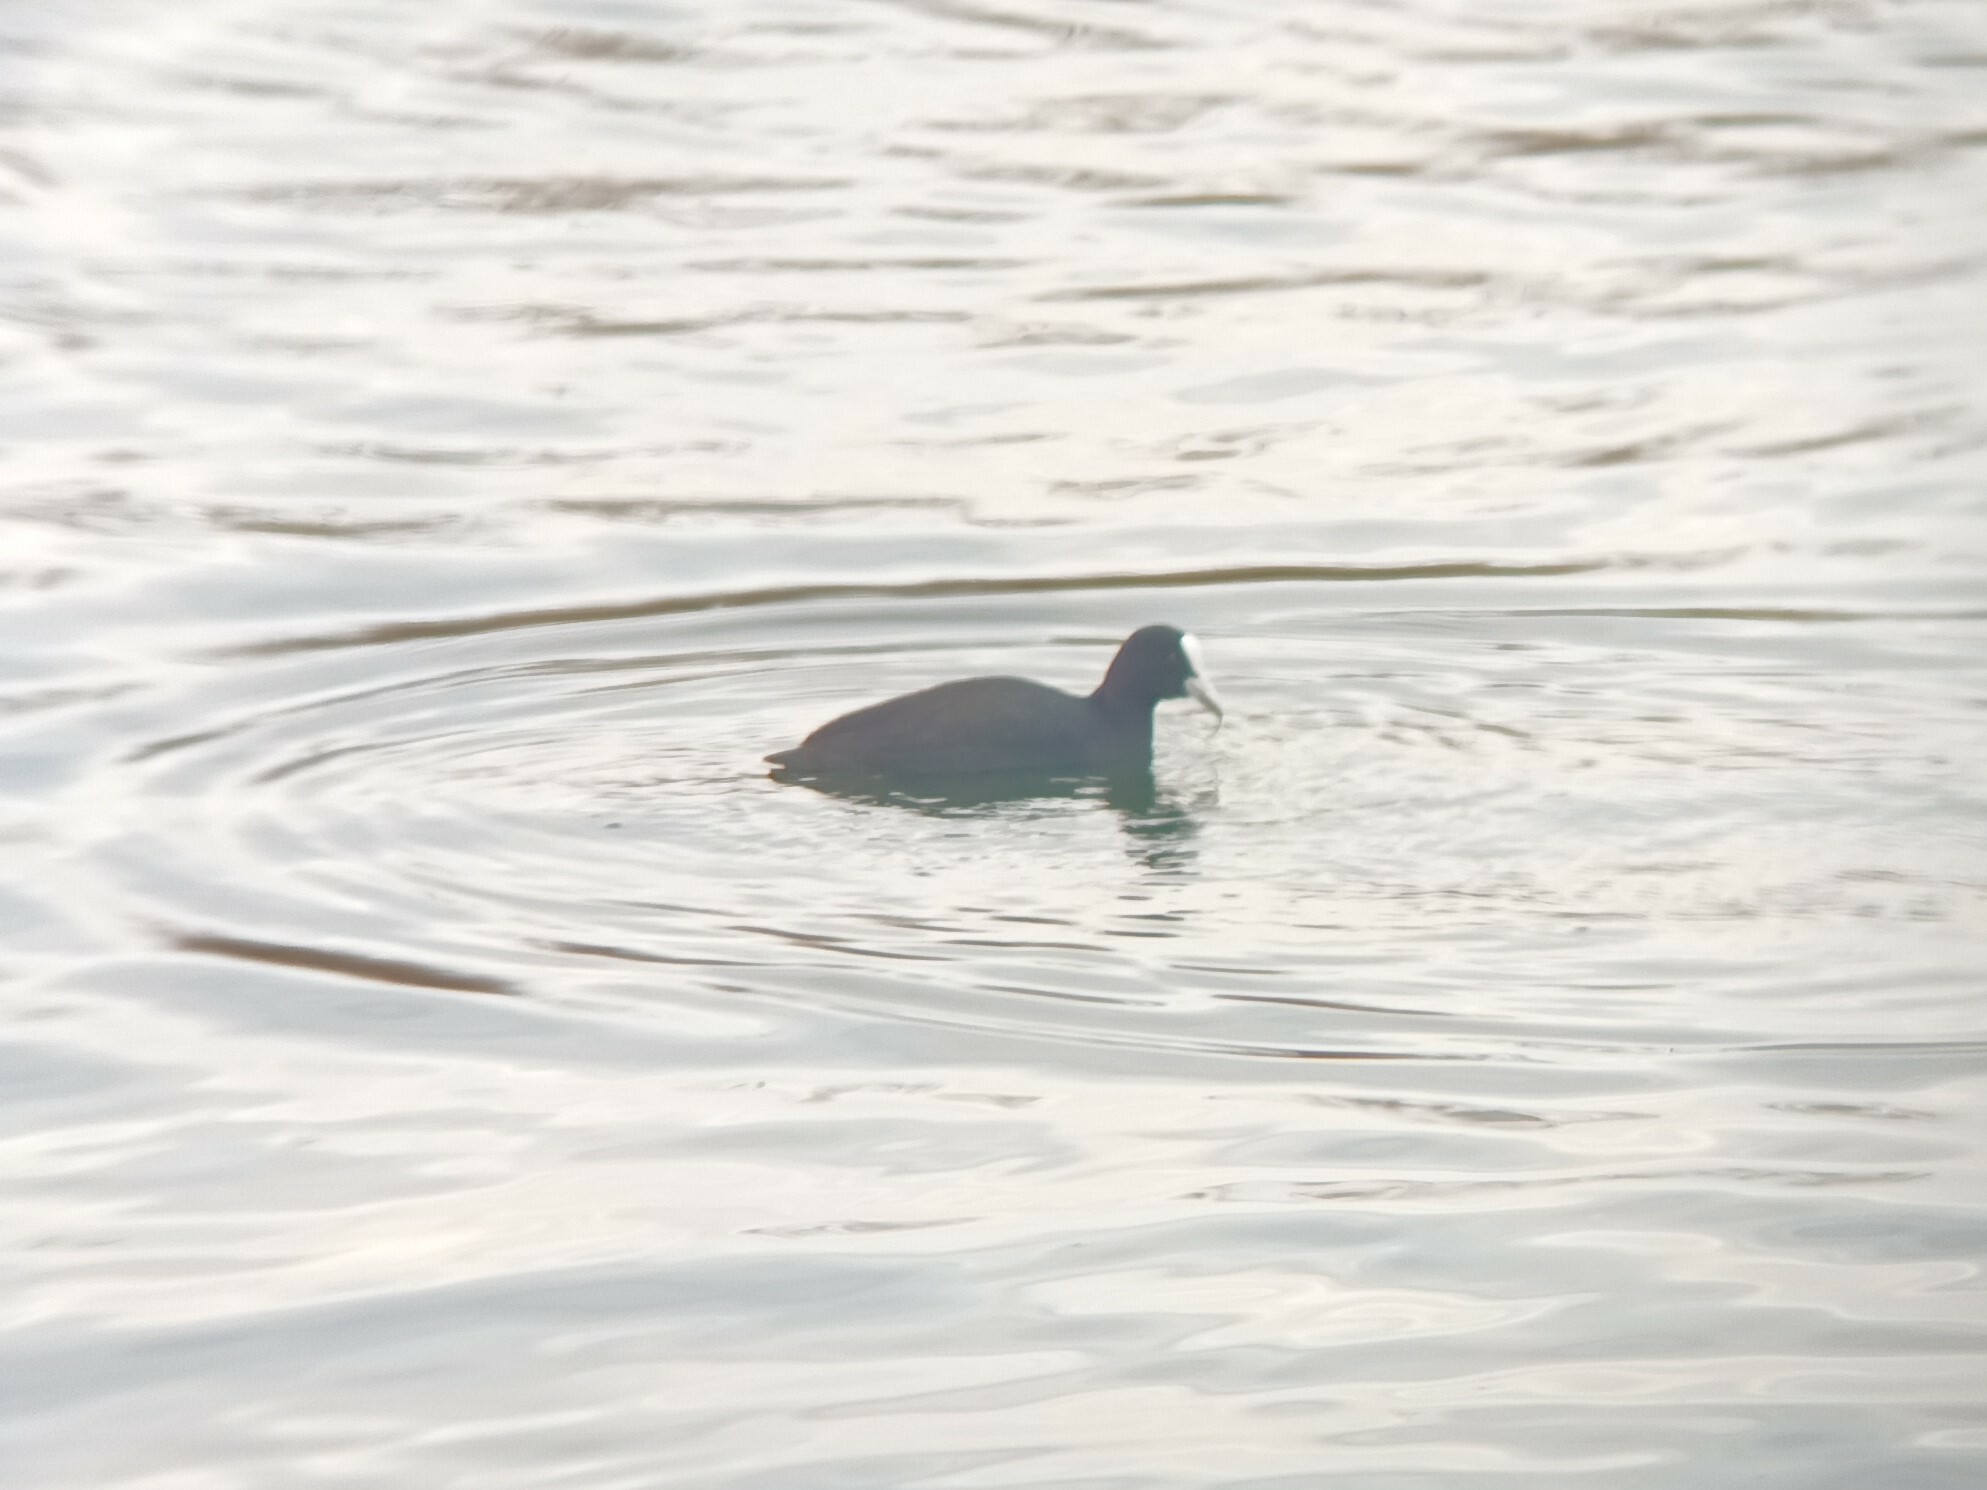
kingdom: Animalia
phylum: Chordata
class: Aves
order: Gruiformes
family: Rallidae
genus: Fulica
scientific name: Fulica atra
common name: Eurasian coot
